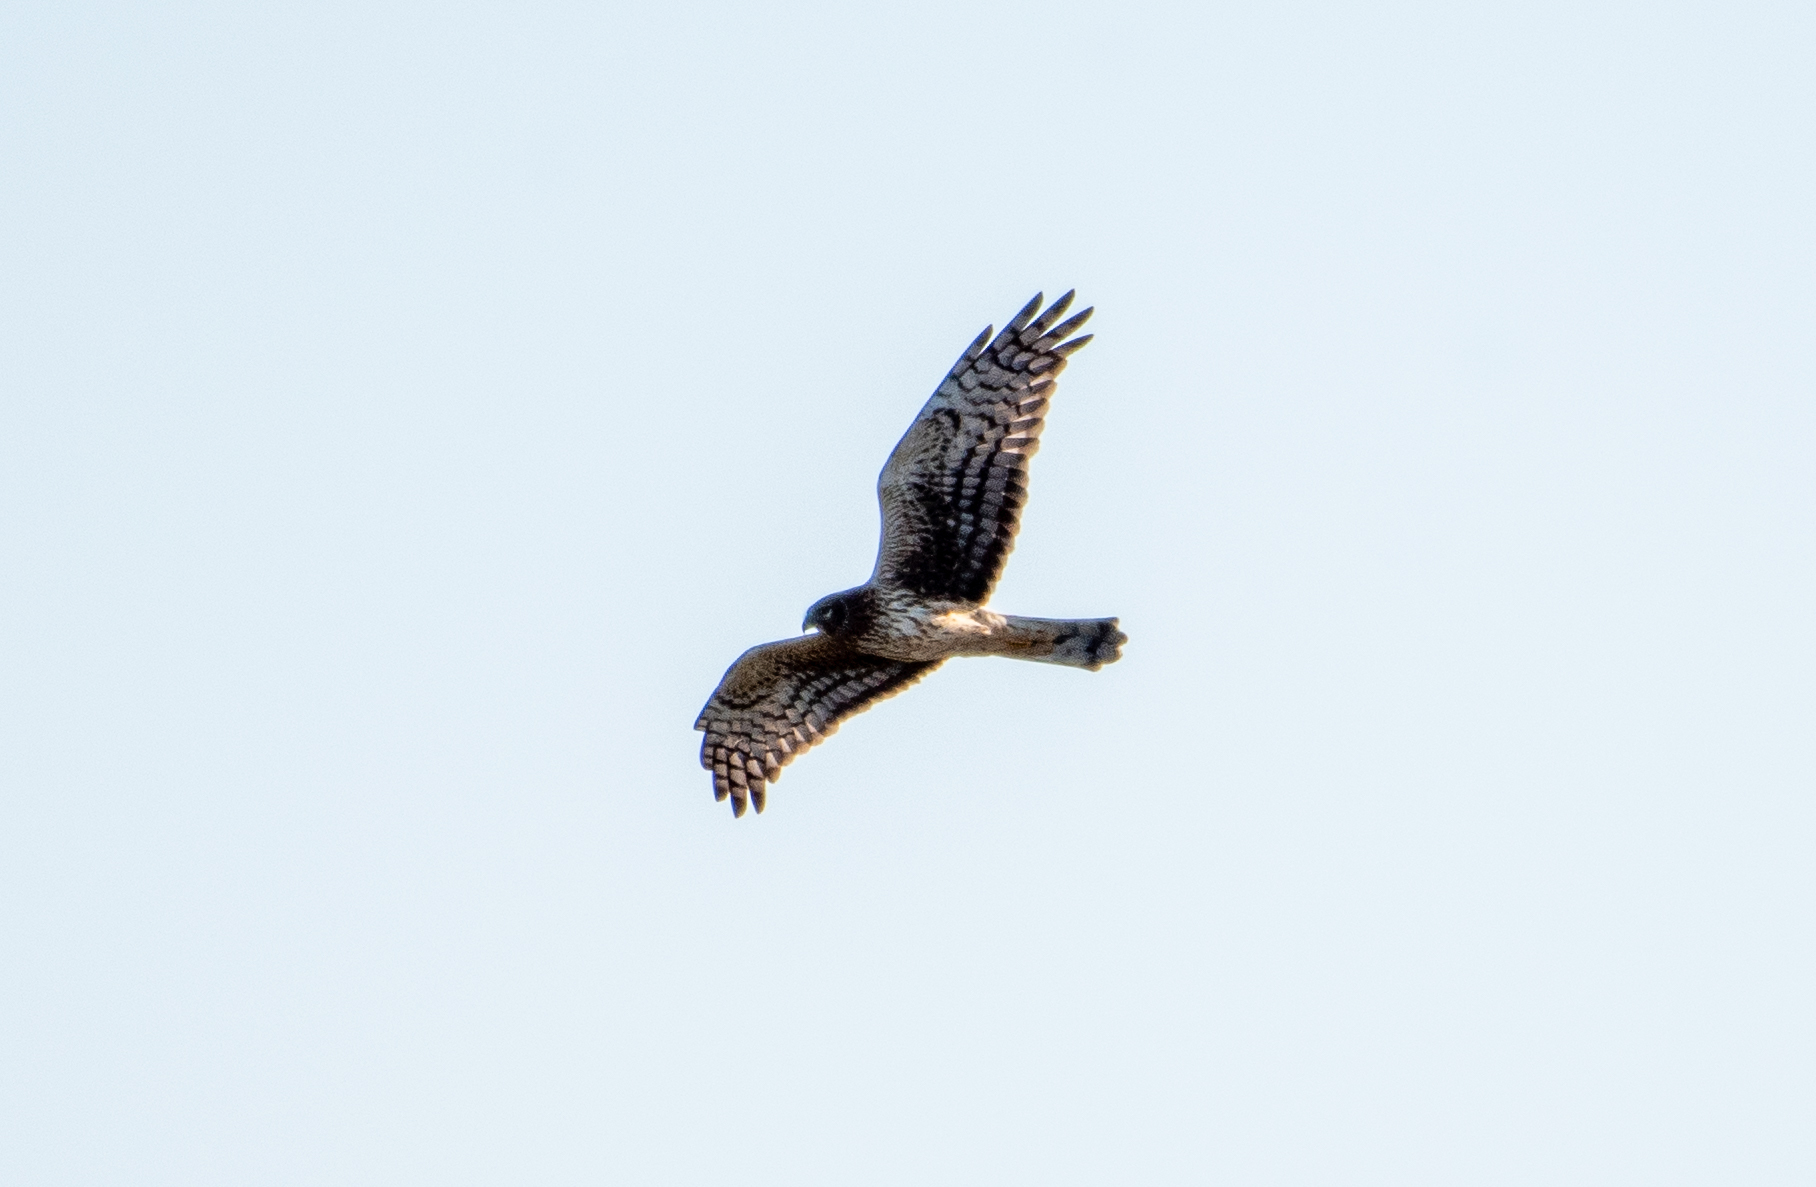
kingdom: Animalia
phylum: Chordata
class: Aves
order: Accipitriformes
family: Accipitridae
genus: Circus
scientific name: Circus cyaneus
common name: Hen harrier
